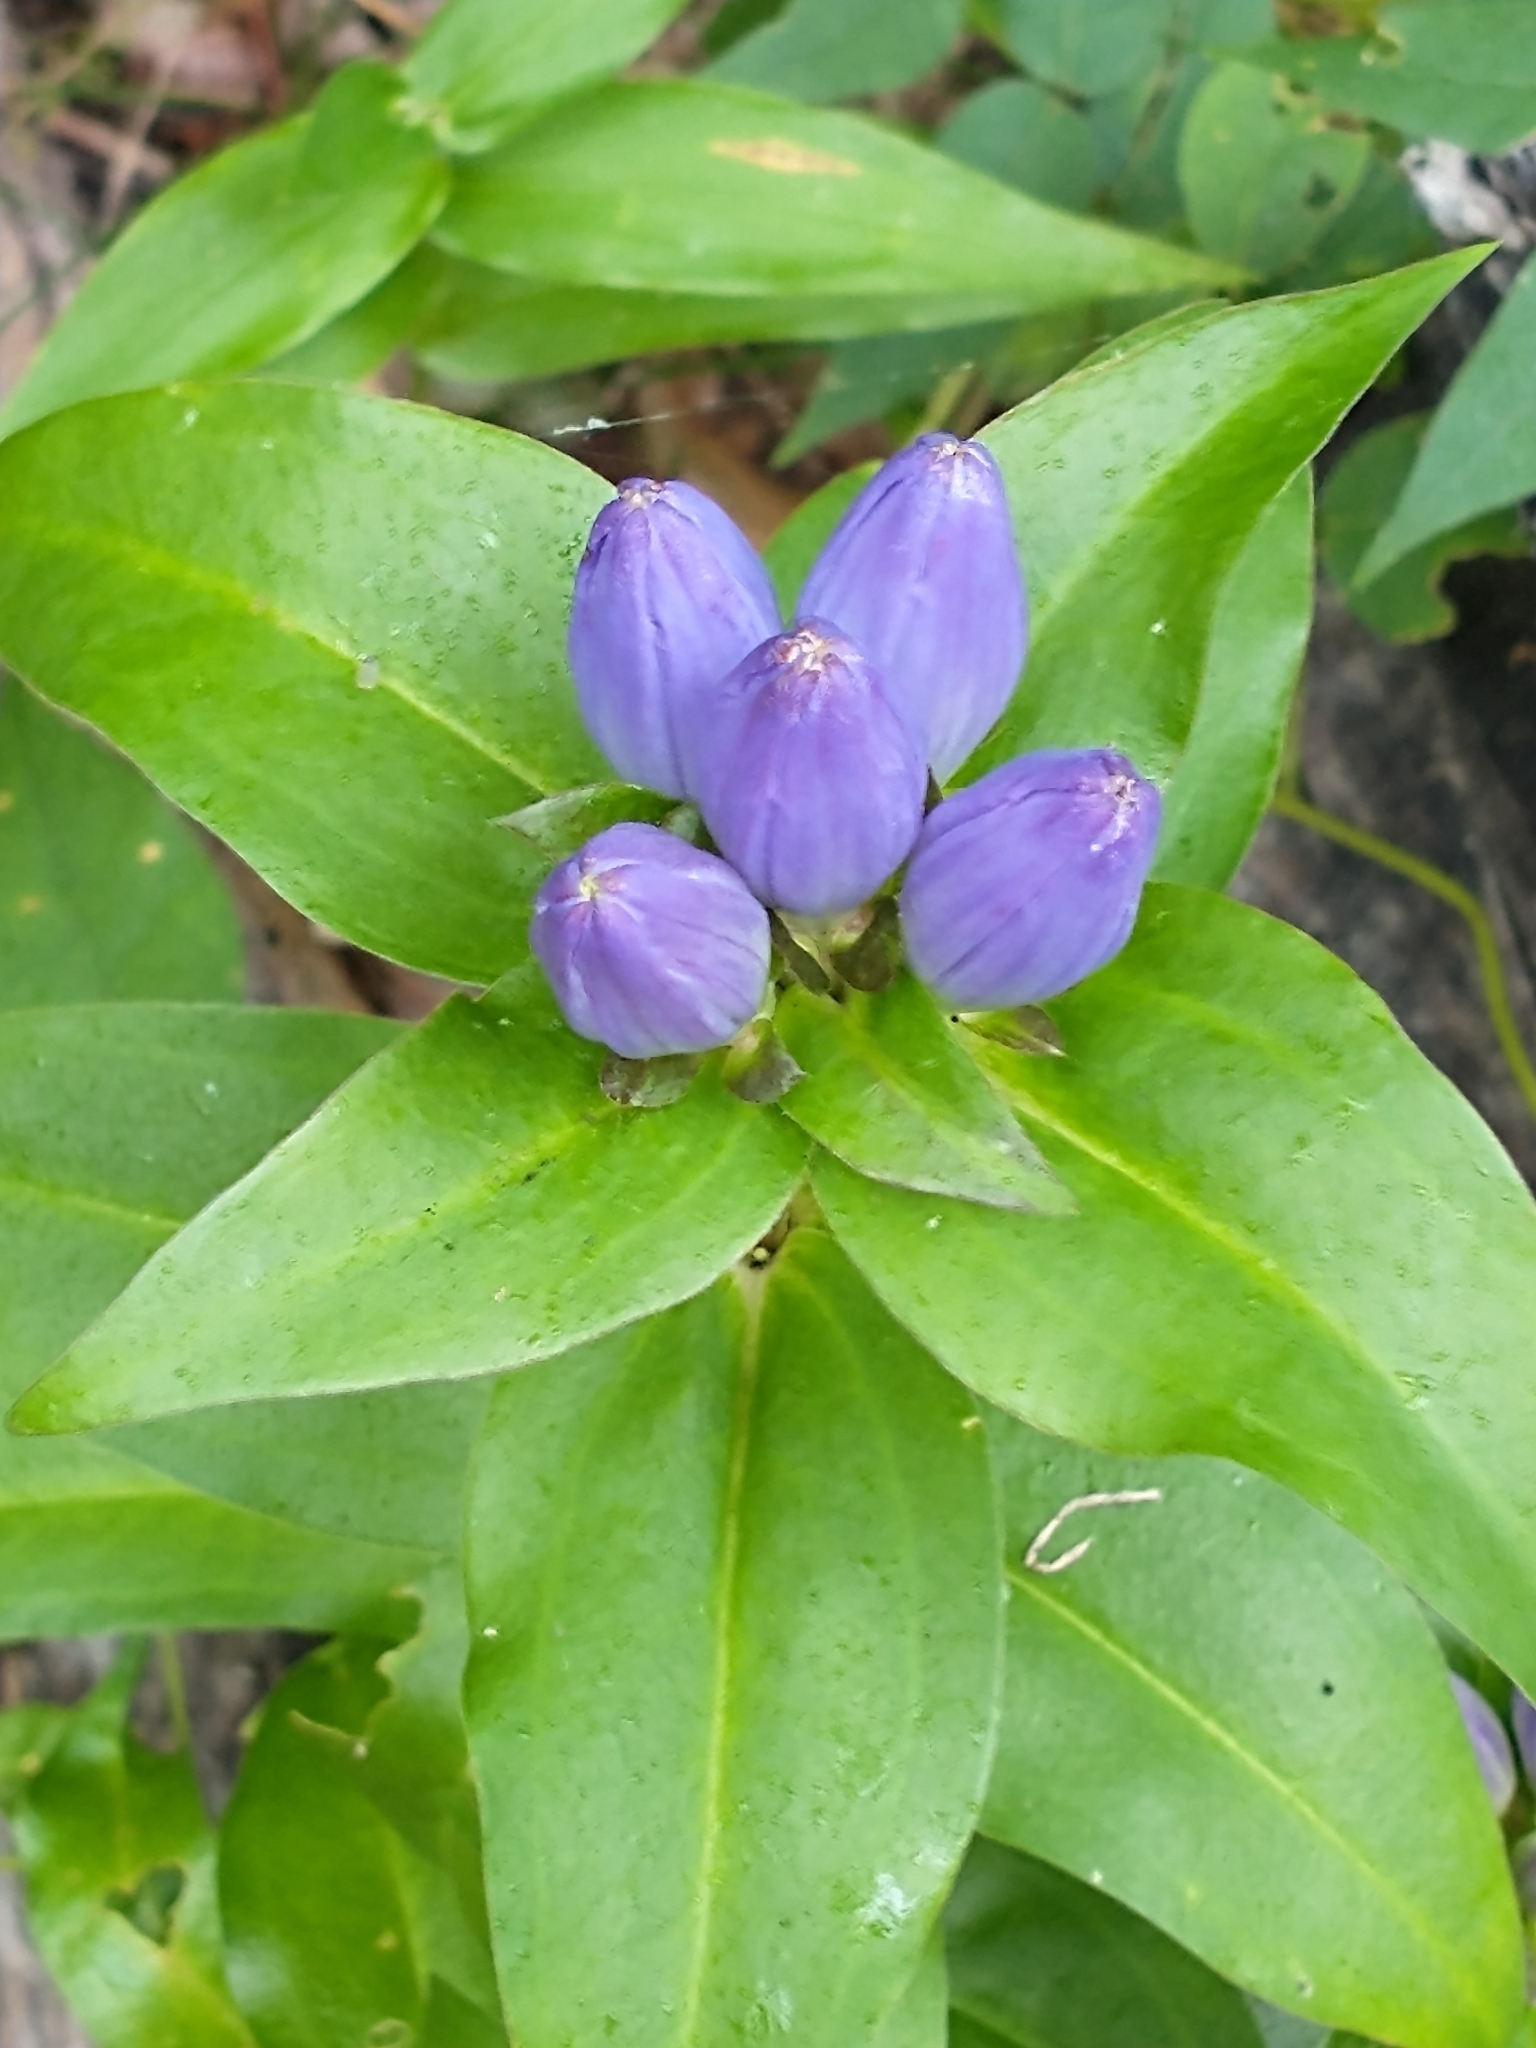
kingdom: Plantae
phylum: Tracheophyta
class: Magnoliopsida
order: Gentianales
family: Gentianaceae
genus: Gentiana
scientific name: Gentiana clausa
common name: Blind gentian
